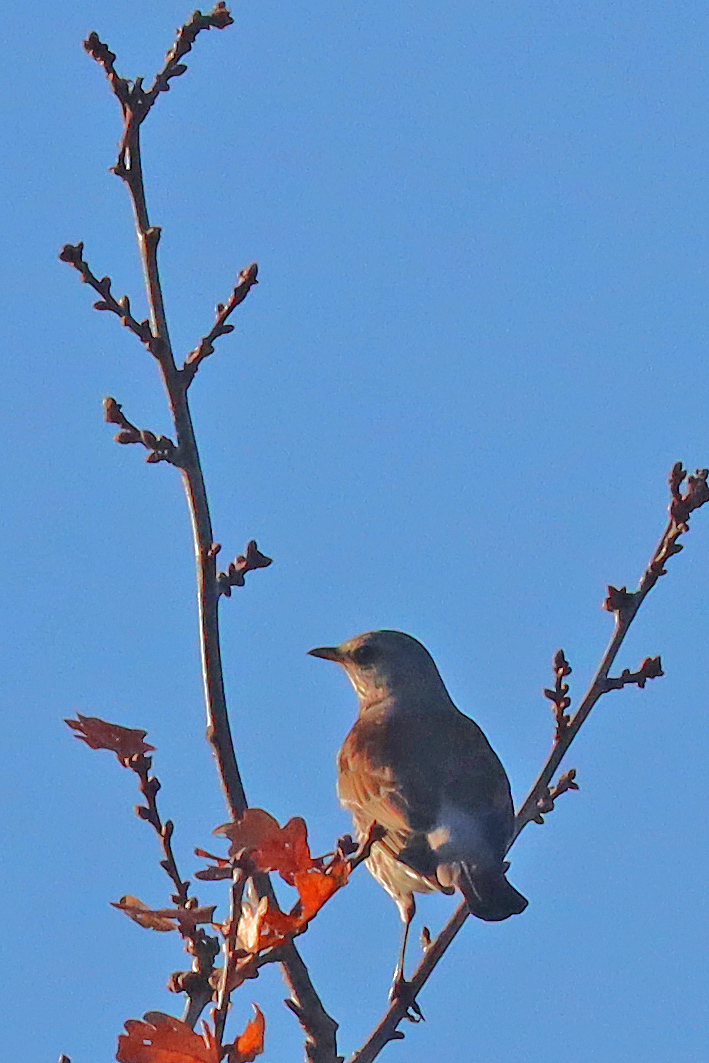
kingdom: Animalia
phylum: Chordata
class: Aves
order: Passeriformes
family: Turdidae
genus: Turdus
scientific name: Turdus pilaris
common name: Fieldfare
